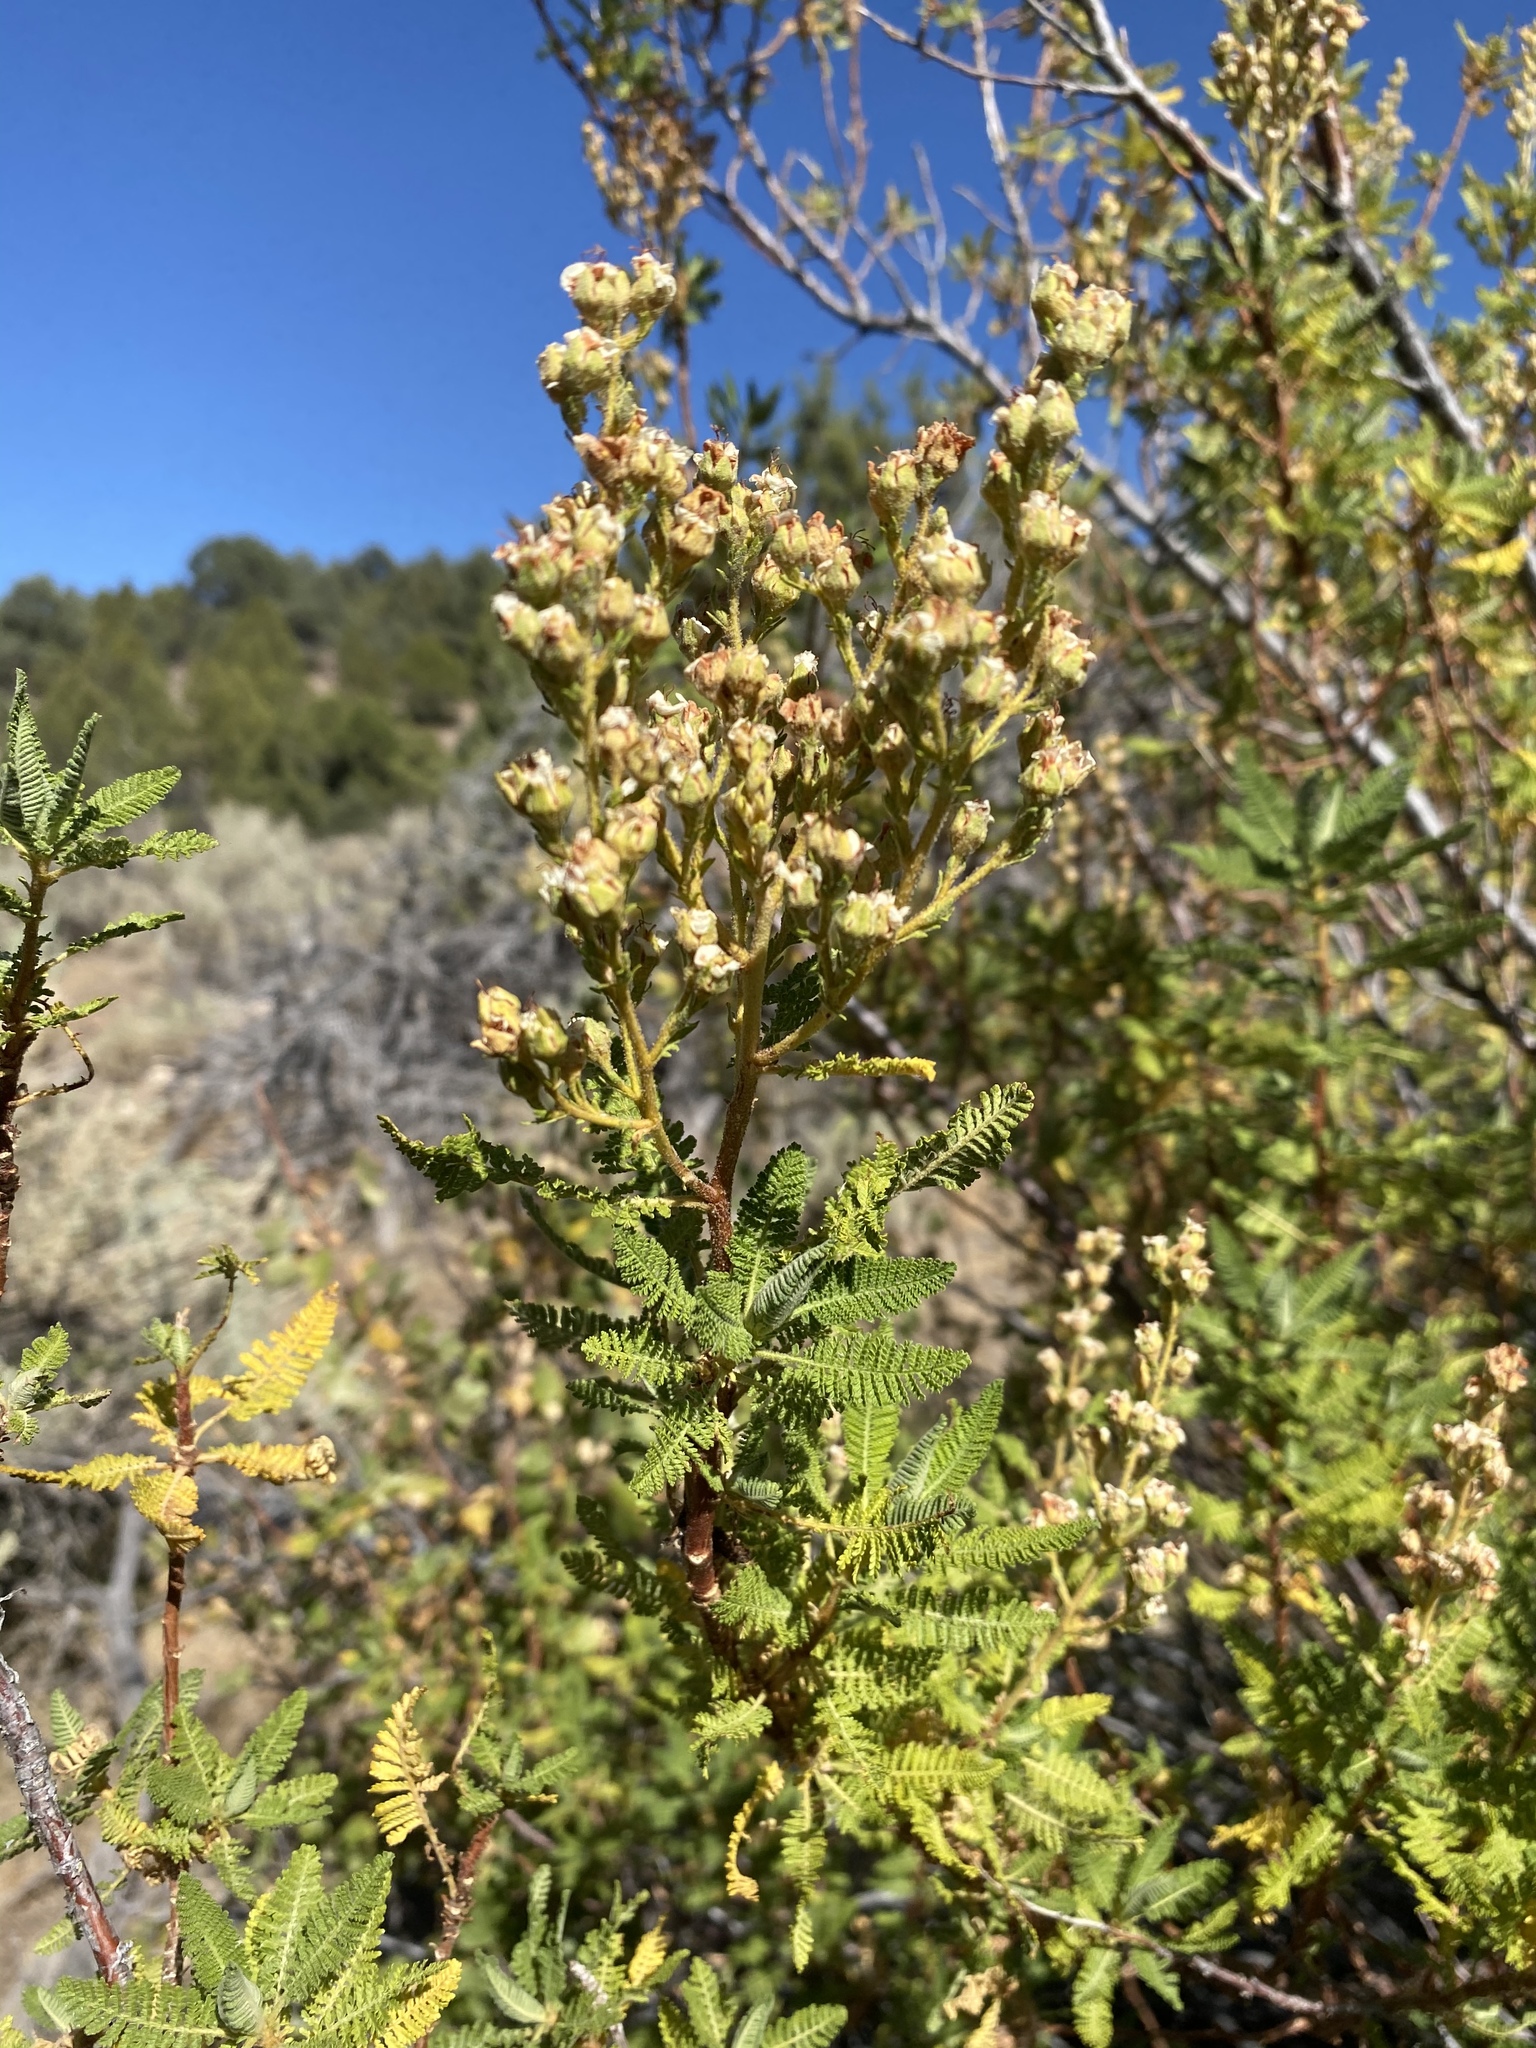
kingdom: Plantae
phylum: Tracheophyta
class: Magnoliopsida
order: Rosales
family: Rosaceae
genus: Chamaebatiaria
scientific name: Chamaebatiaria millefolium
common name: Fernbush
